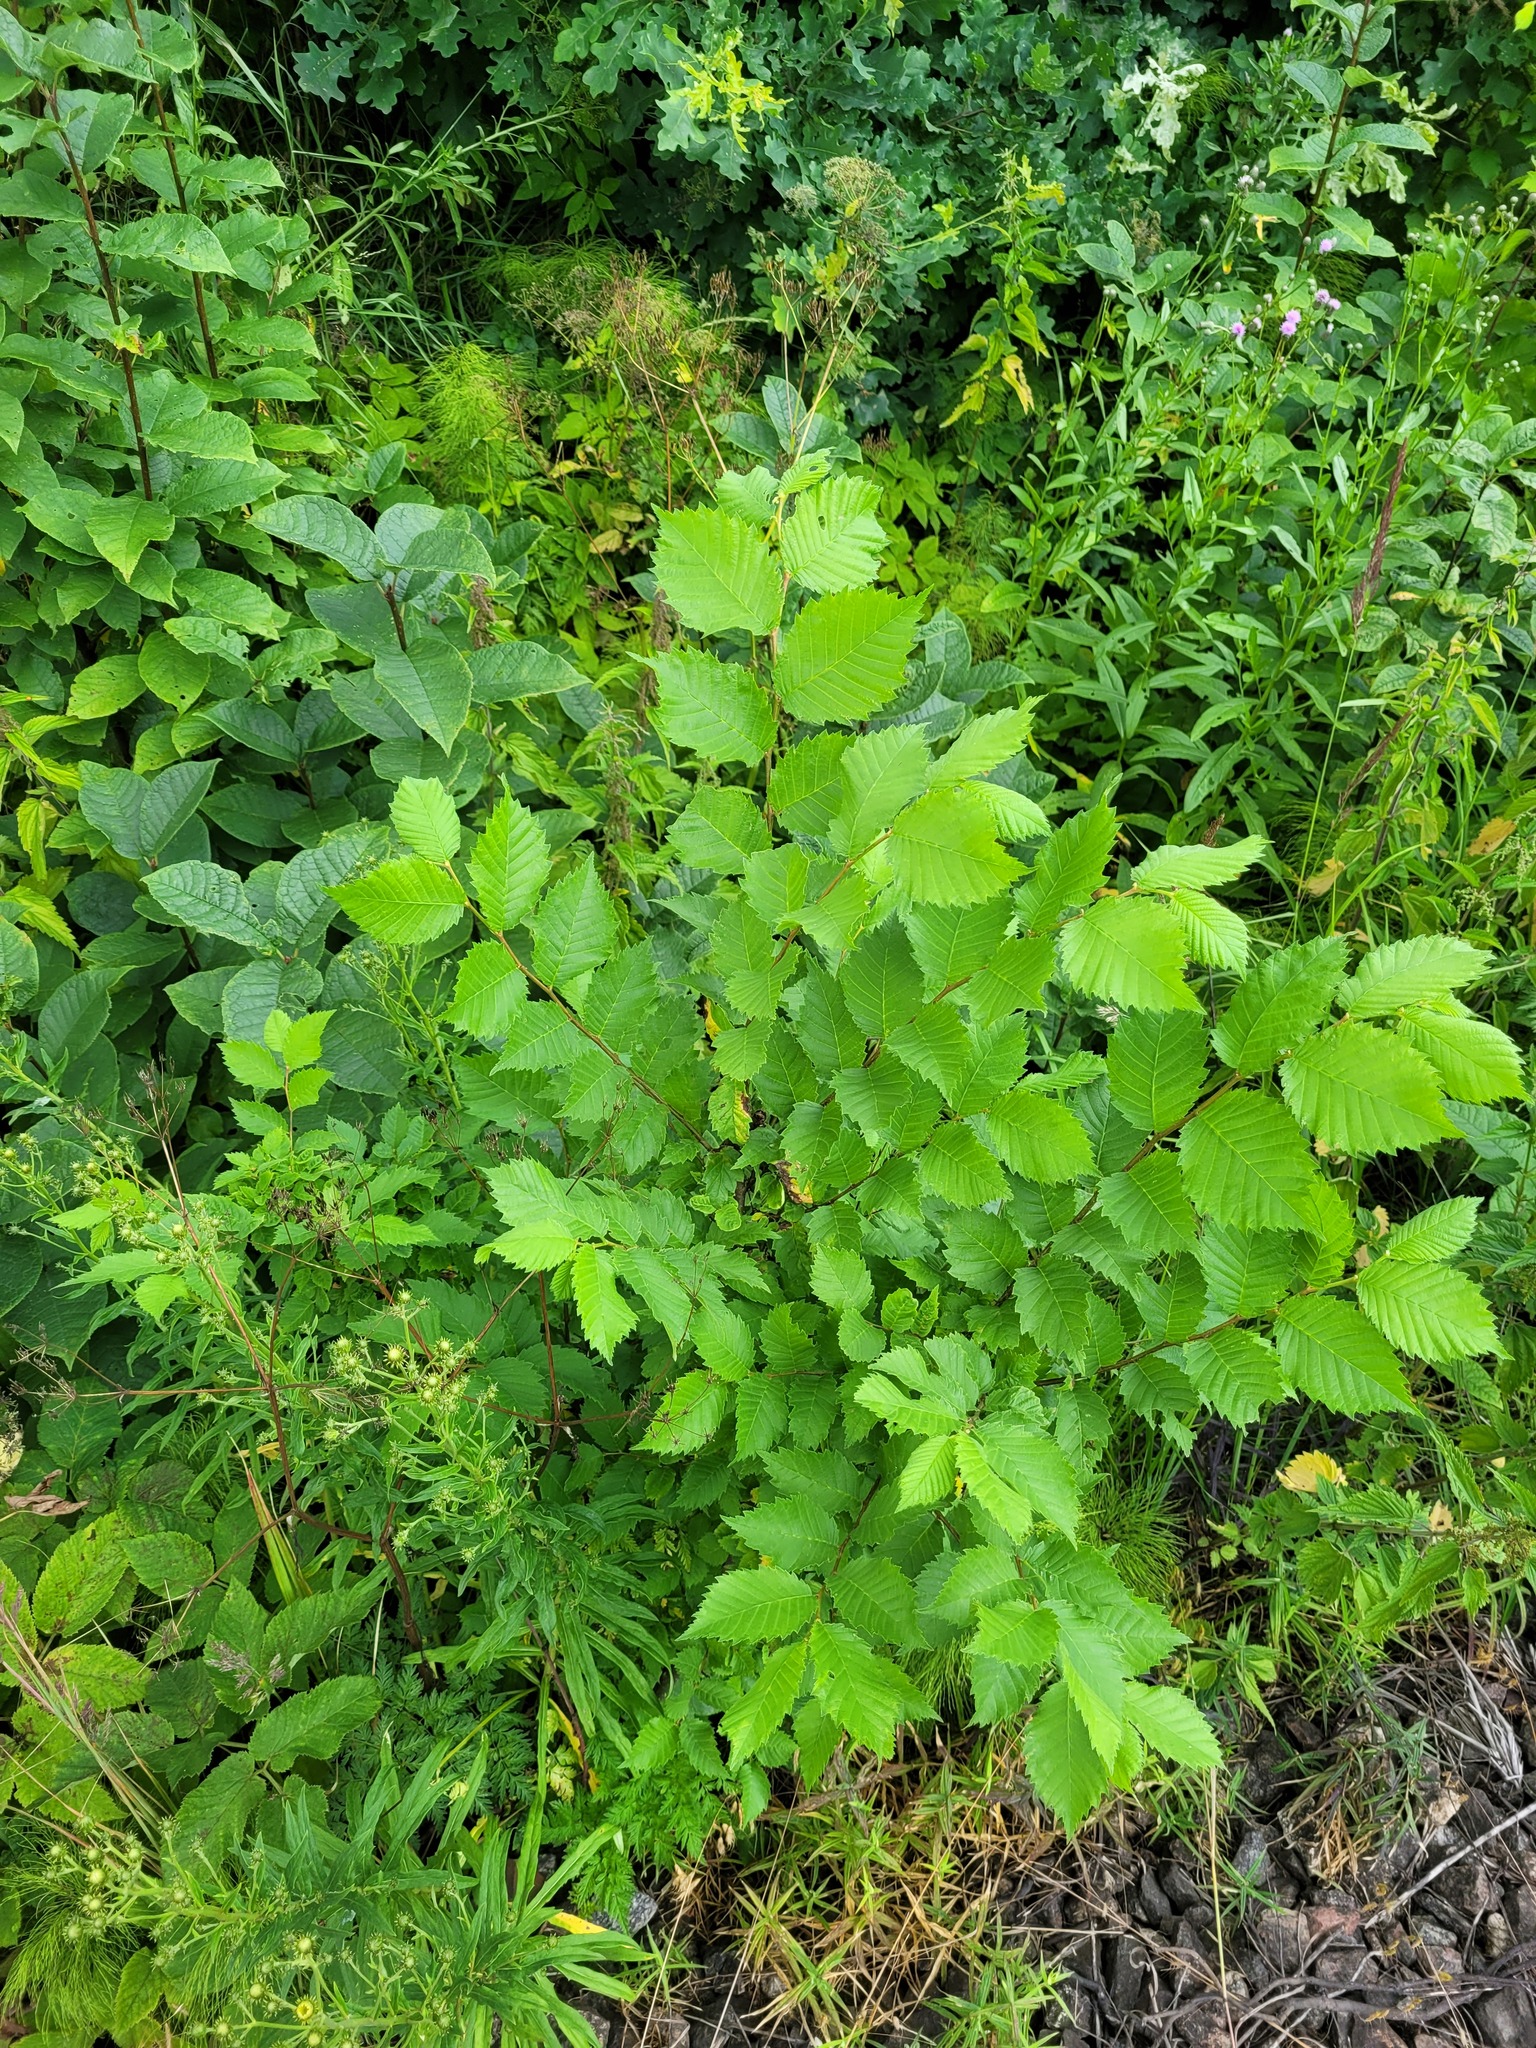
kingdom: Plantae
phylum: Tracheophyta
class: Magnoliopsida
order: Rosales
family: Ulmaceae
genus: Ulmus
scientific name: Ulmus laevis
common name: European white-elm
